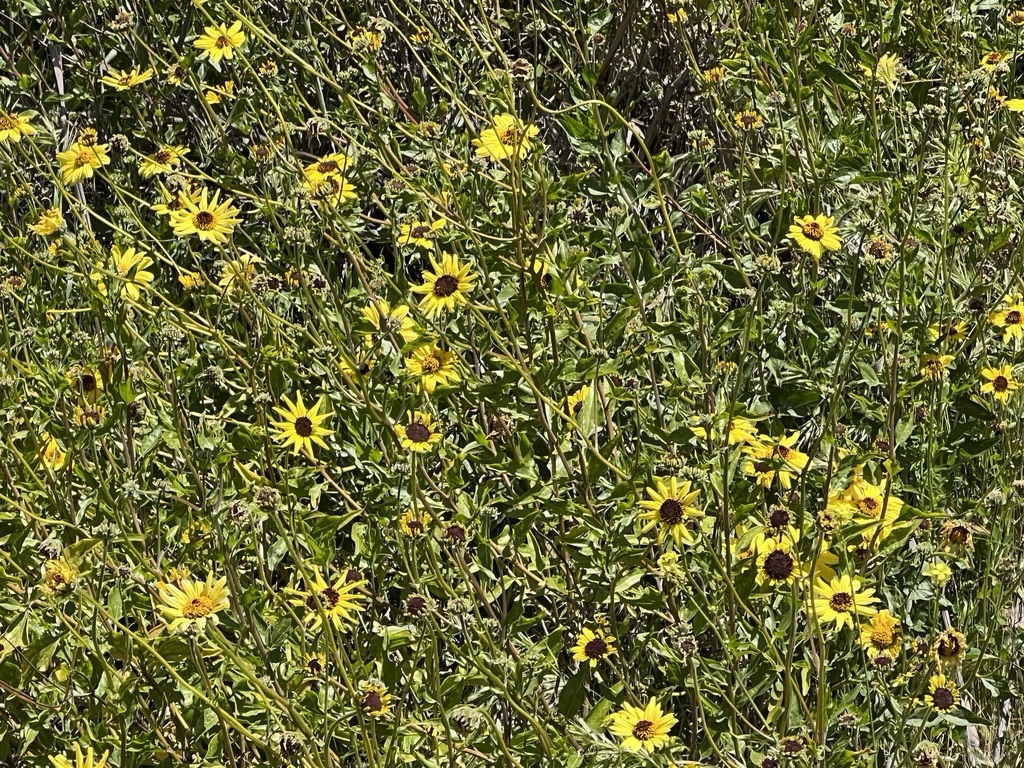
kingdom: Plantae
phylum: Tracheophyta
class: Magnoliopsida
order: Asterales
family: Asteraceae
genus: Encelia
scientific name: Encelia californica
